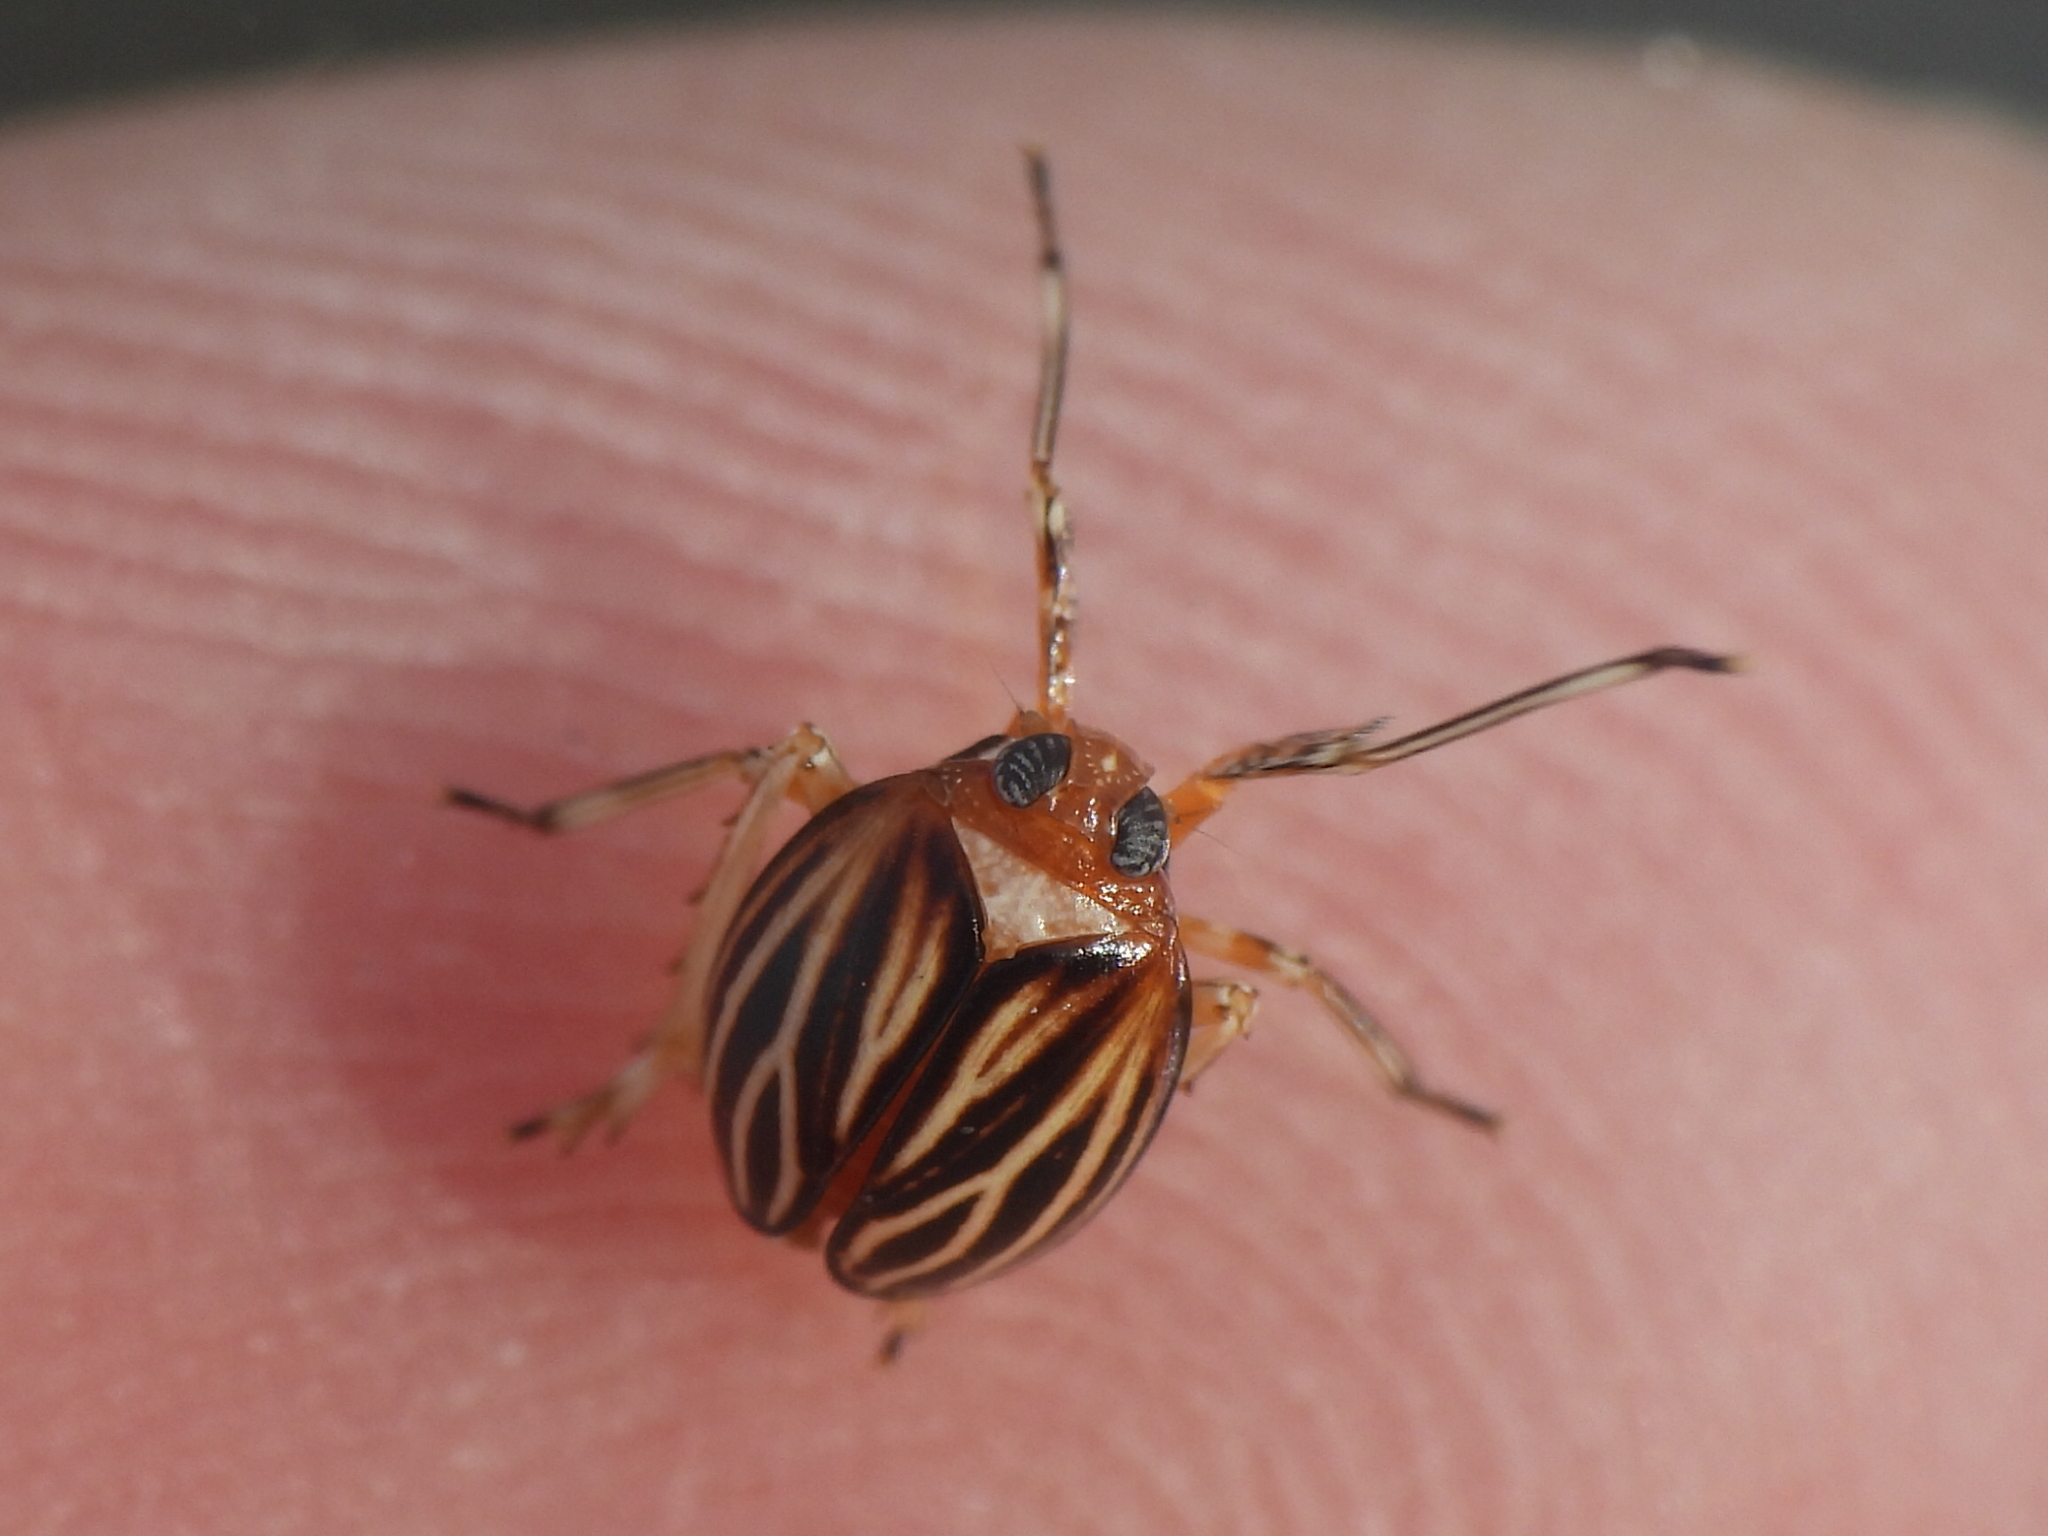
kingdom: Animalia
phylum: Arthropoda
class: Insecta
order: Hemiptera
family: Achilidae
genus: Isodaemon
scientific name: Isodaemon orontes
